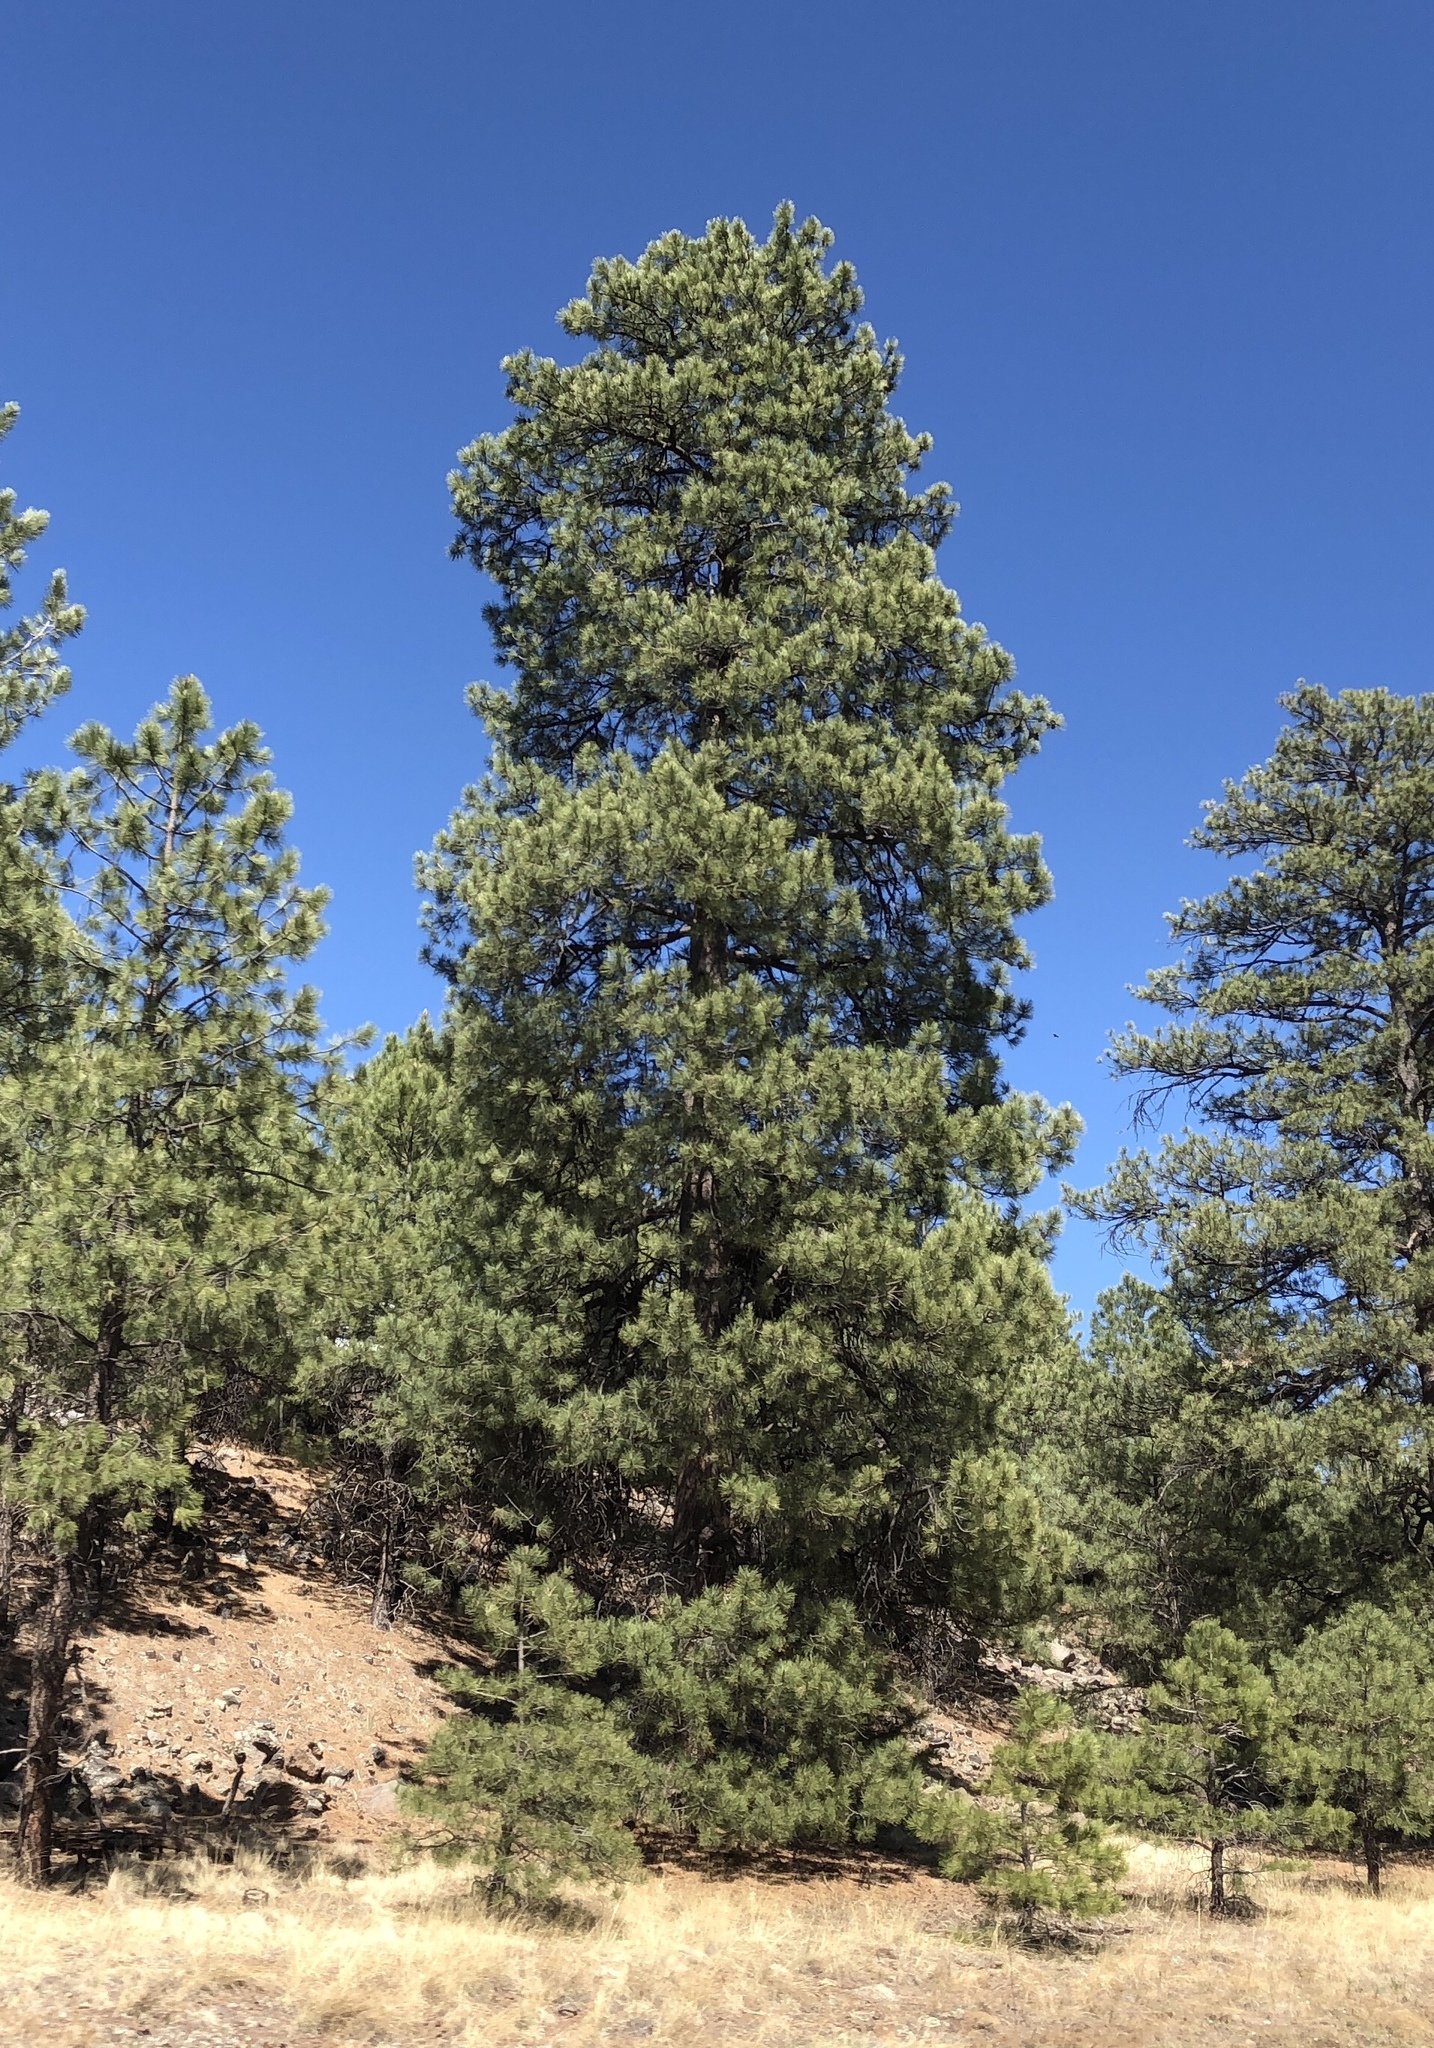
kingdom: Plantae
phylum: Tracheophyta
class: Pinopsida
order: Pinales
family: Pinaceae
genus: Pinus
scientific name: Pinus ponderosa
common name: Western yellow-pine
